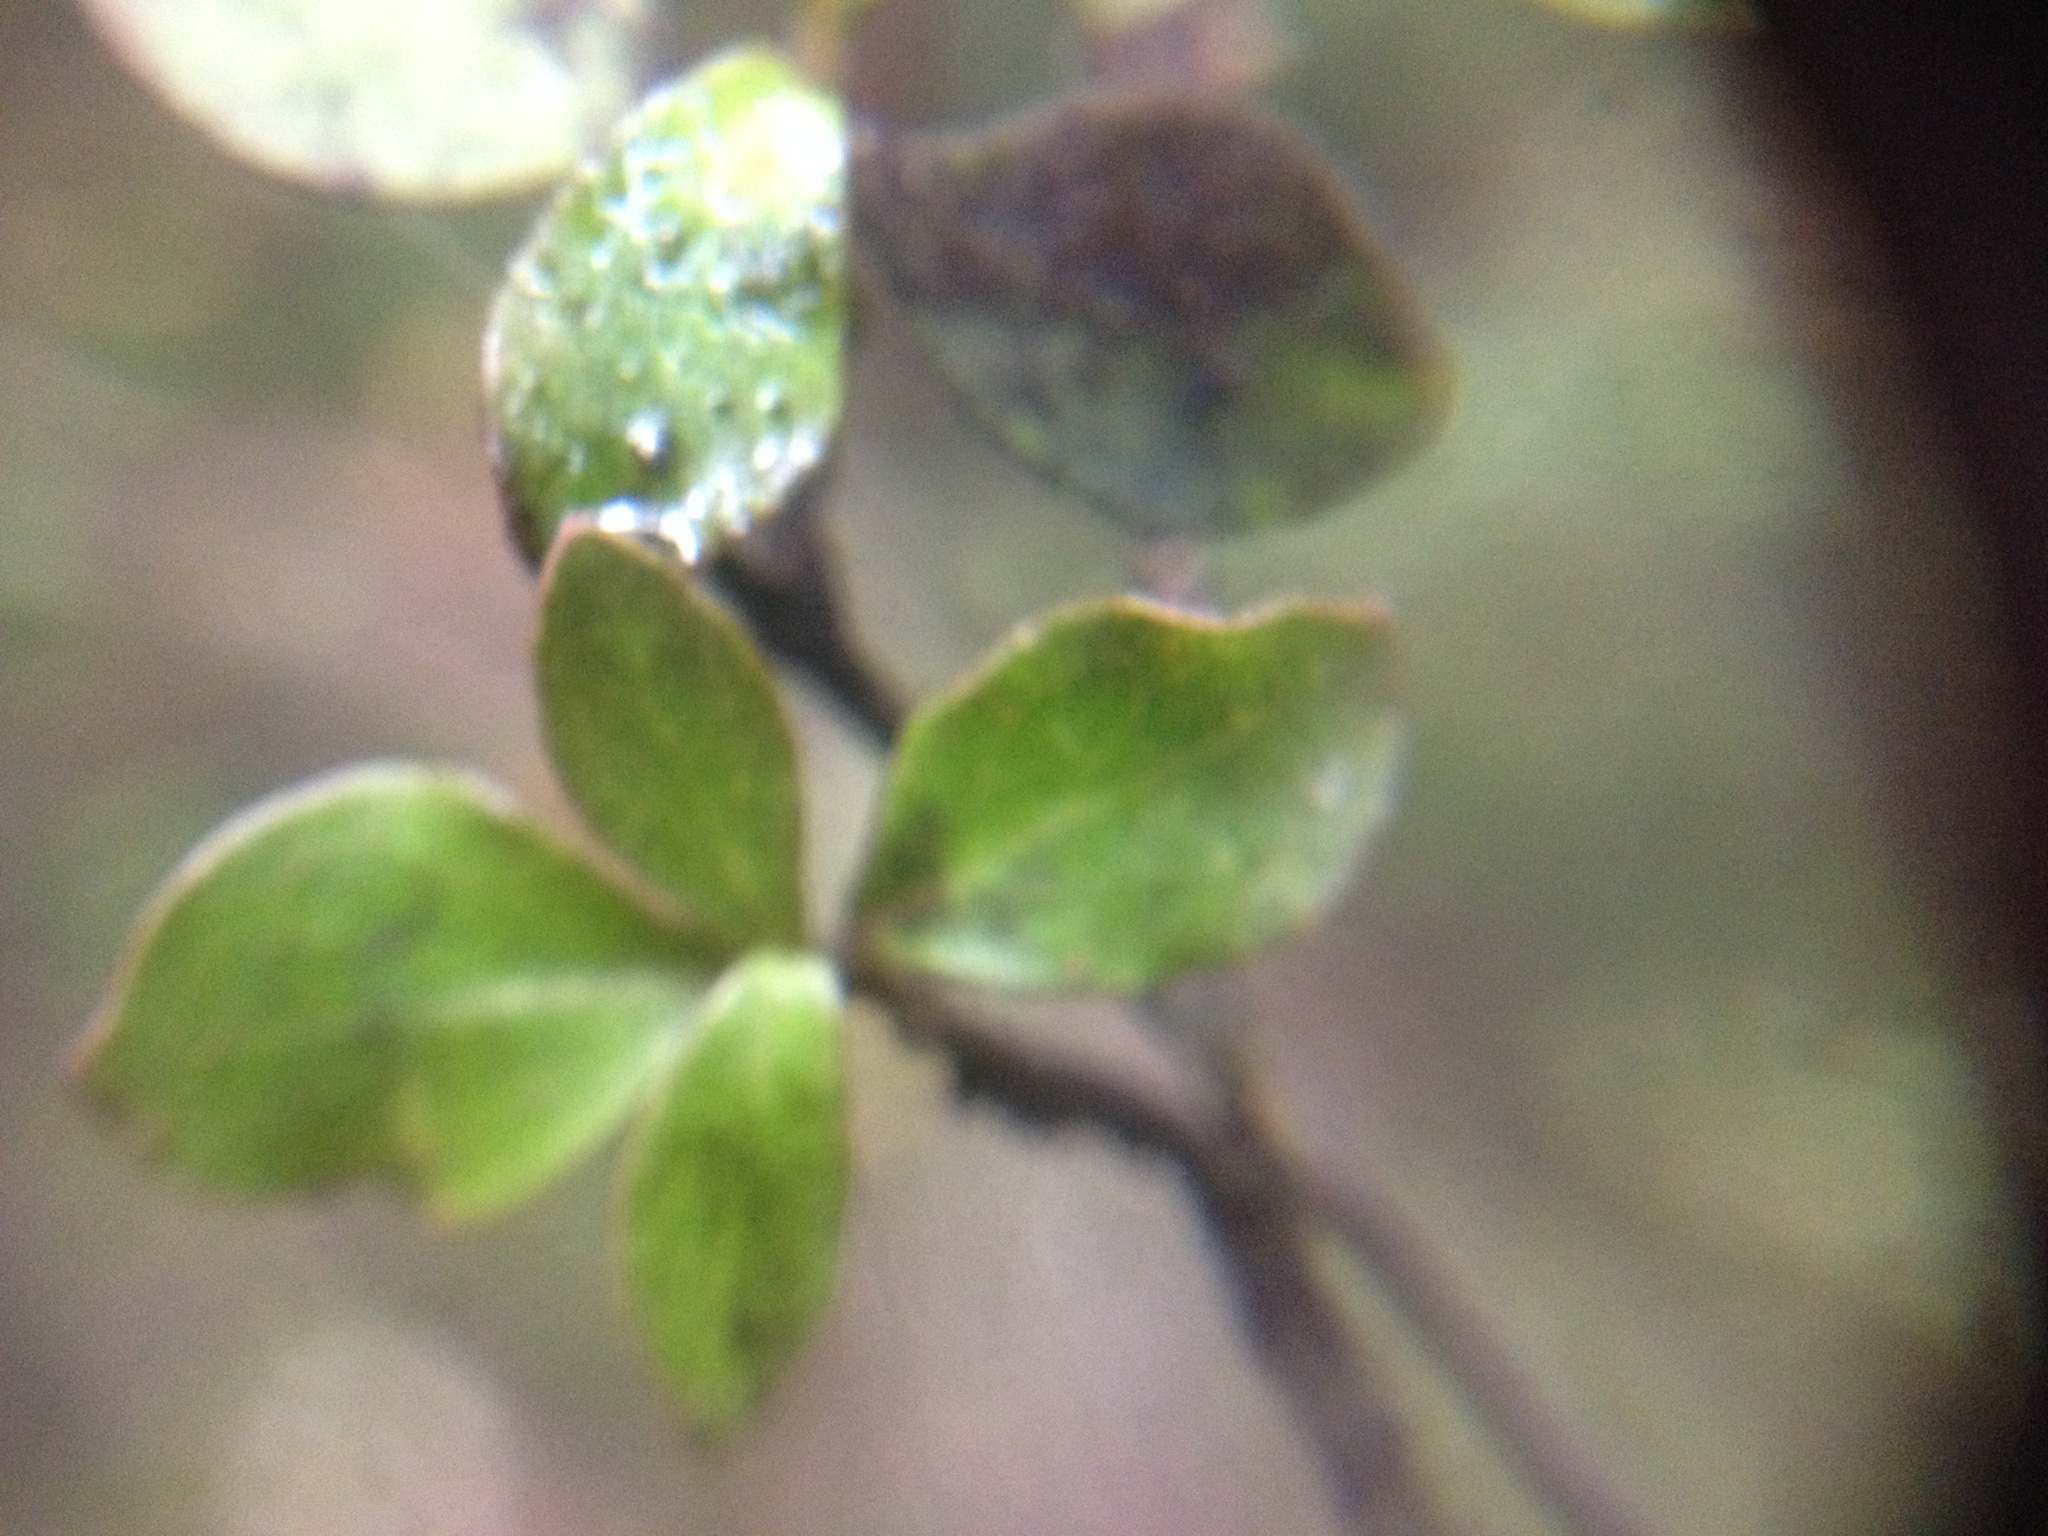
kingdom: Plantae
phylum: Tracheophyta
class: Magnoliopsida
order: Gentianales
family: Rubiaceae
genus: Coprosma
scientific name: Coprosma rhamnoides
